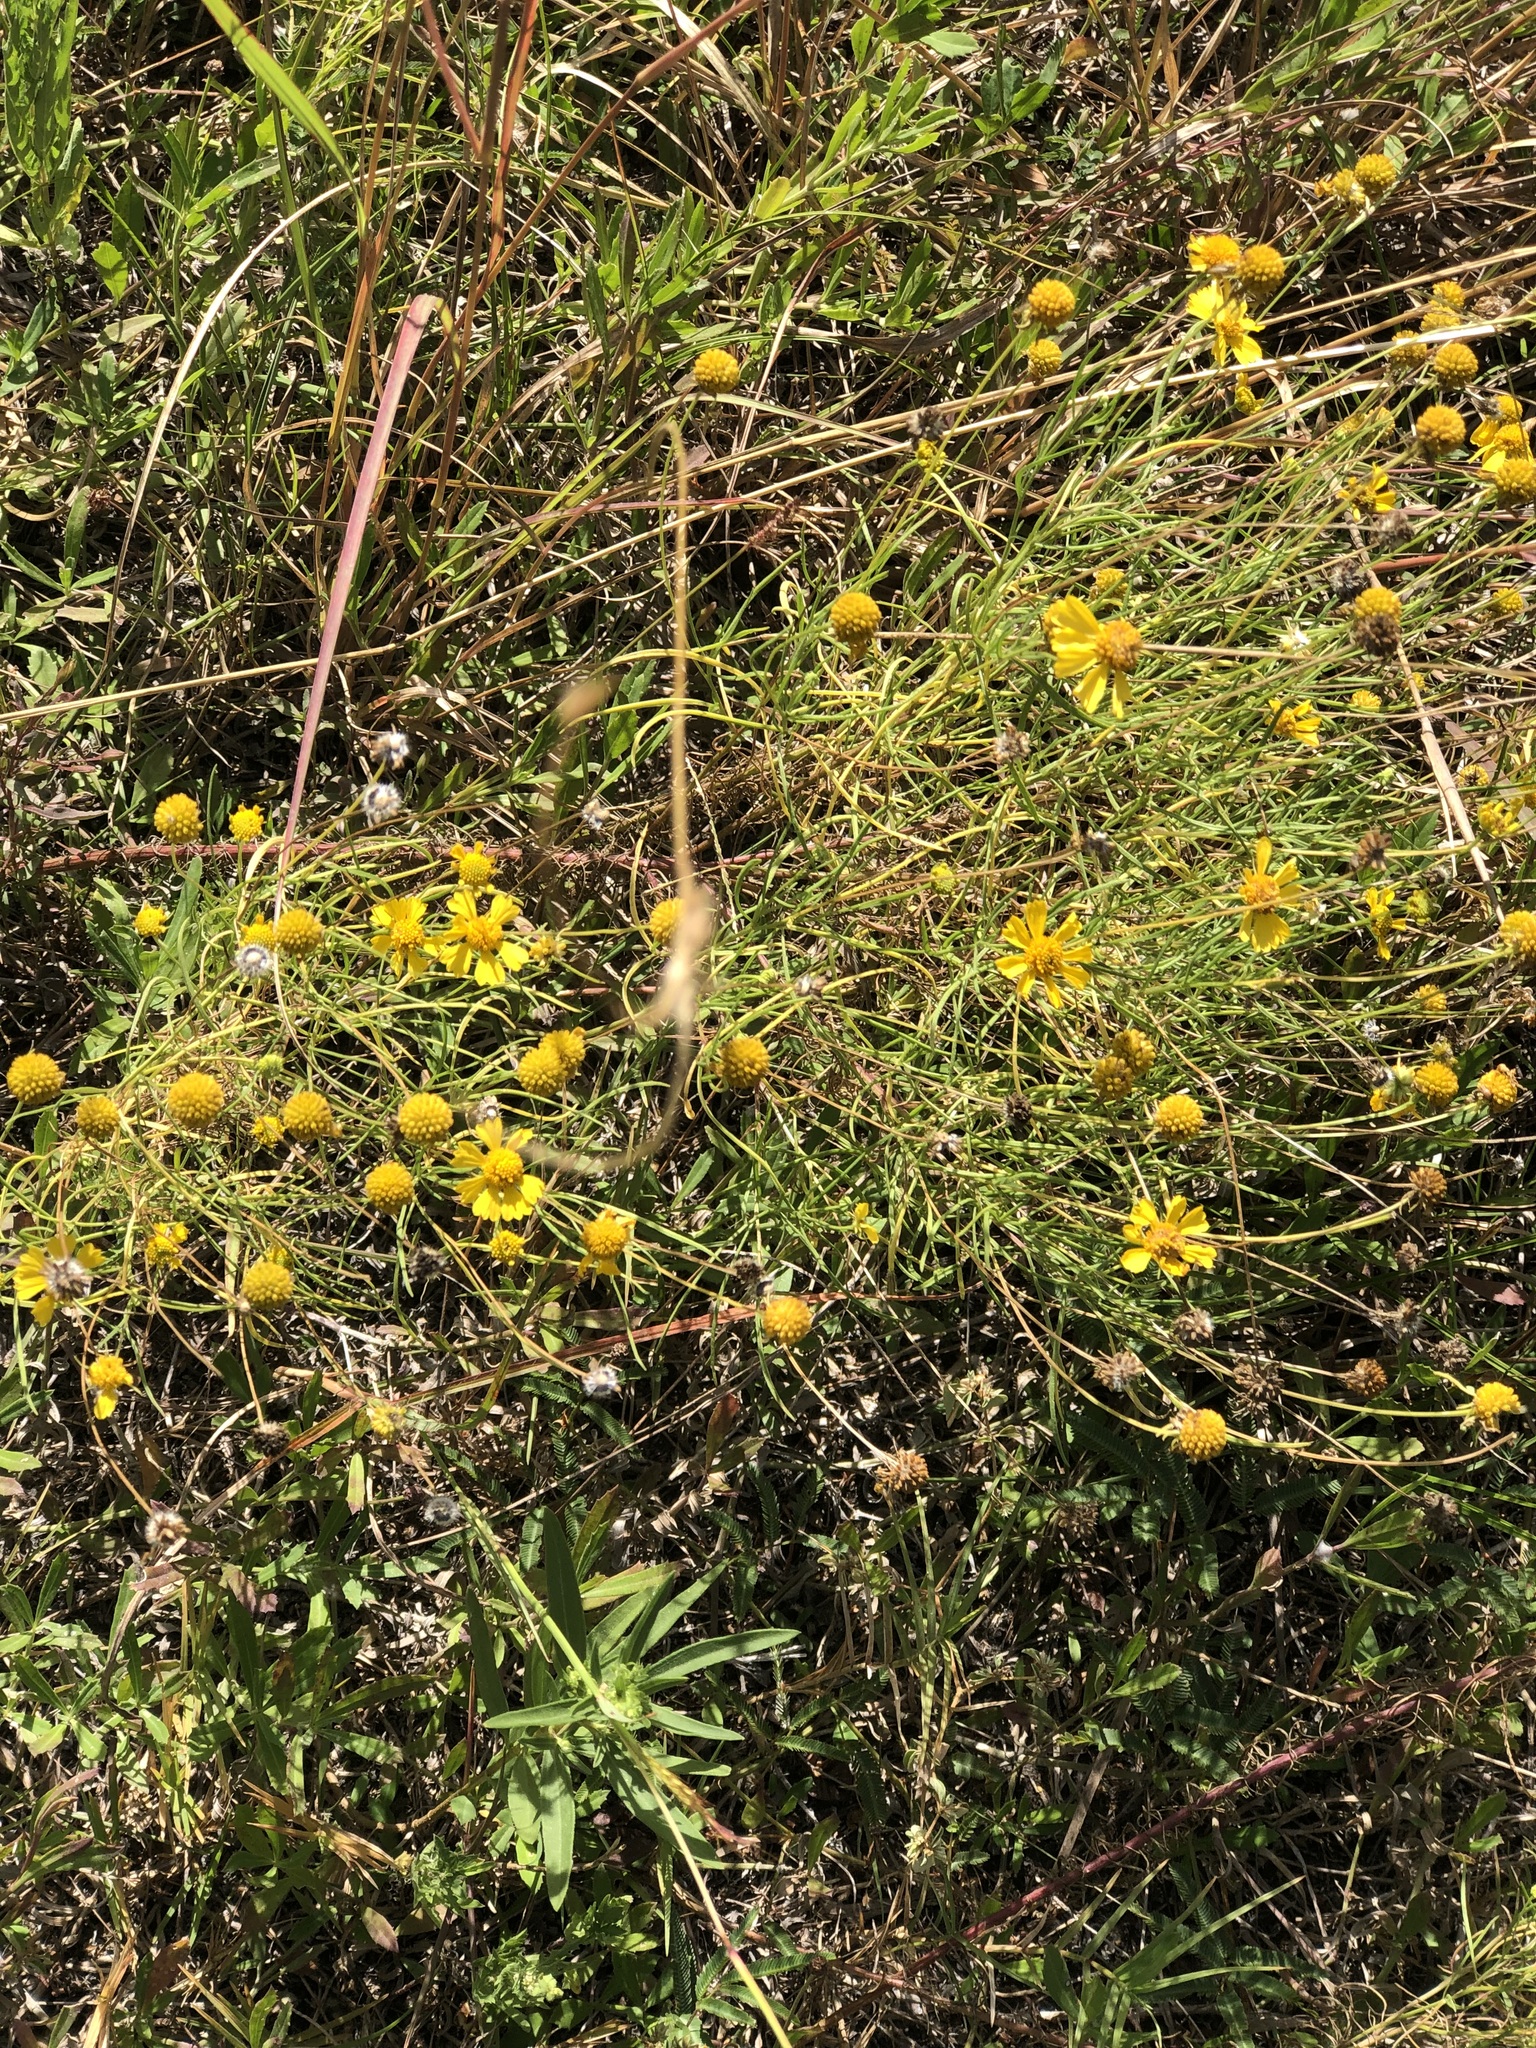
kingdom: Plantae
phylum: Tracheophyta
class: Magnoliopsida
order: Asterales
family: Asteraceae
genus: Helenium
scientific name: Helenium amarum
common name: Bitter sneezeweed
